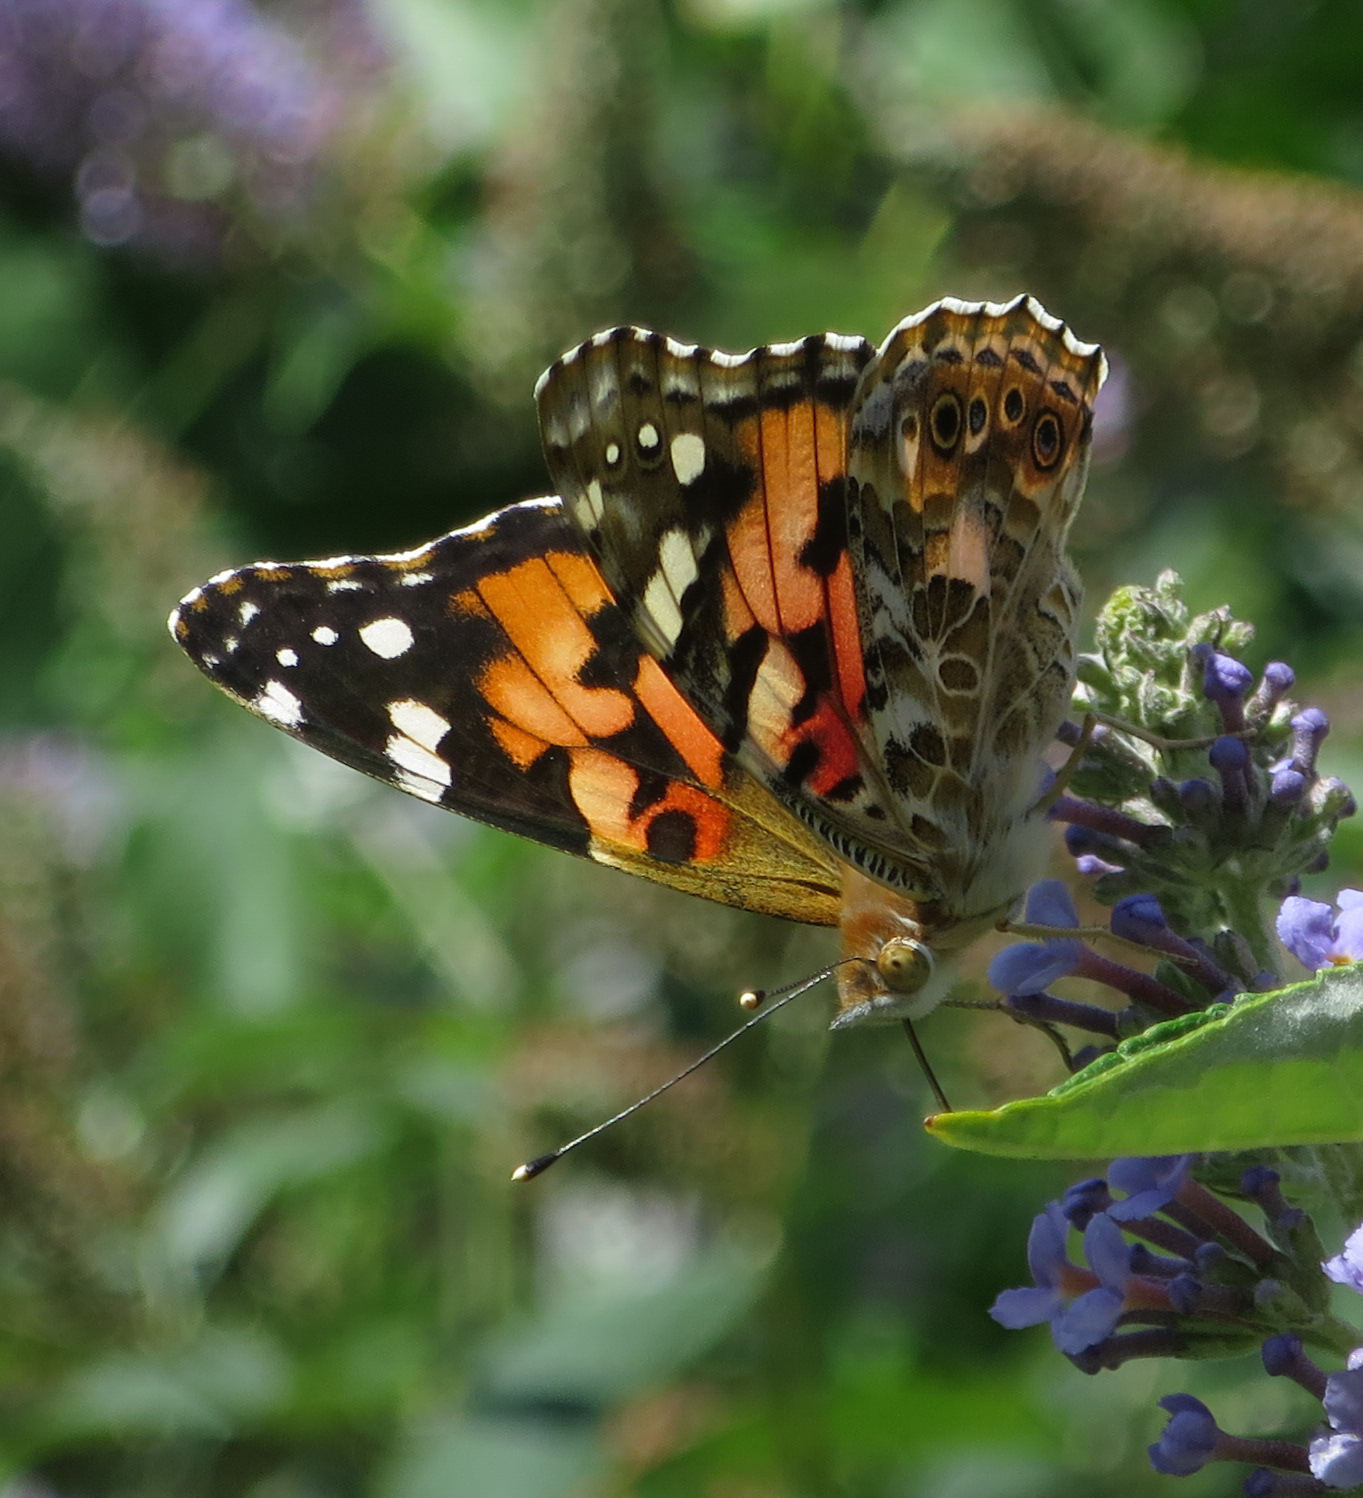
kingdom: Animalia
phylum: Arthropoda
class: Insecta
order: Lepidoptera
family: Nymphalidae
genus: Vanessa
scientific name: Vanessa cardui
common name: Painted lady
